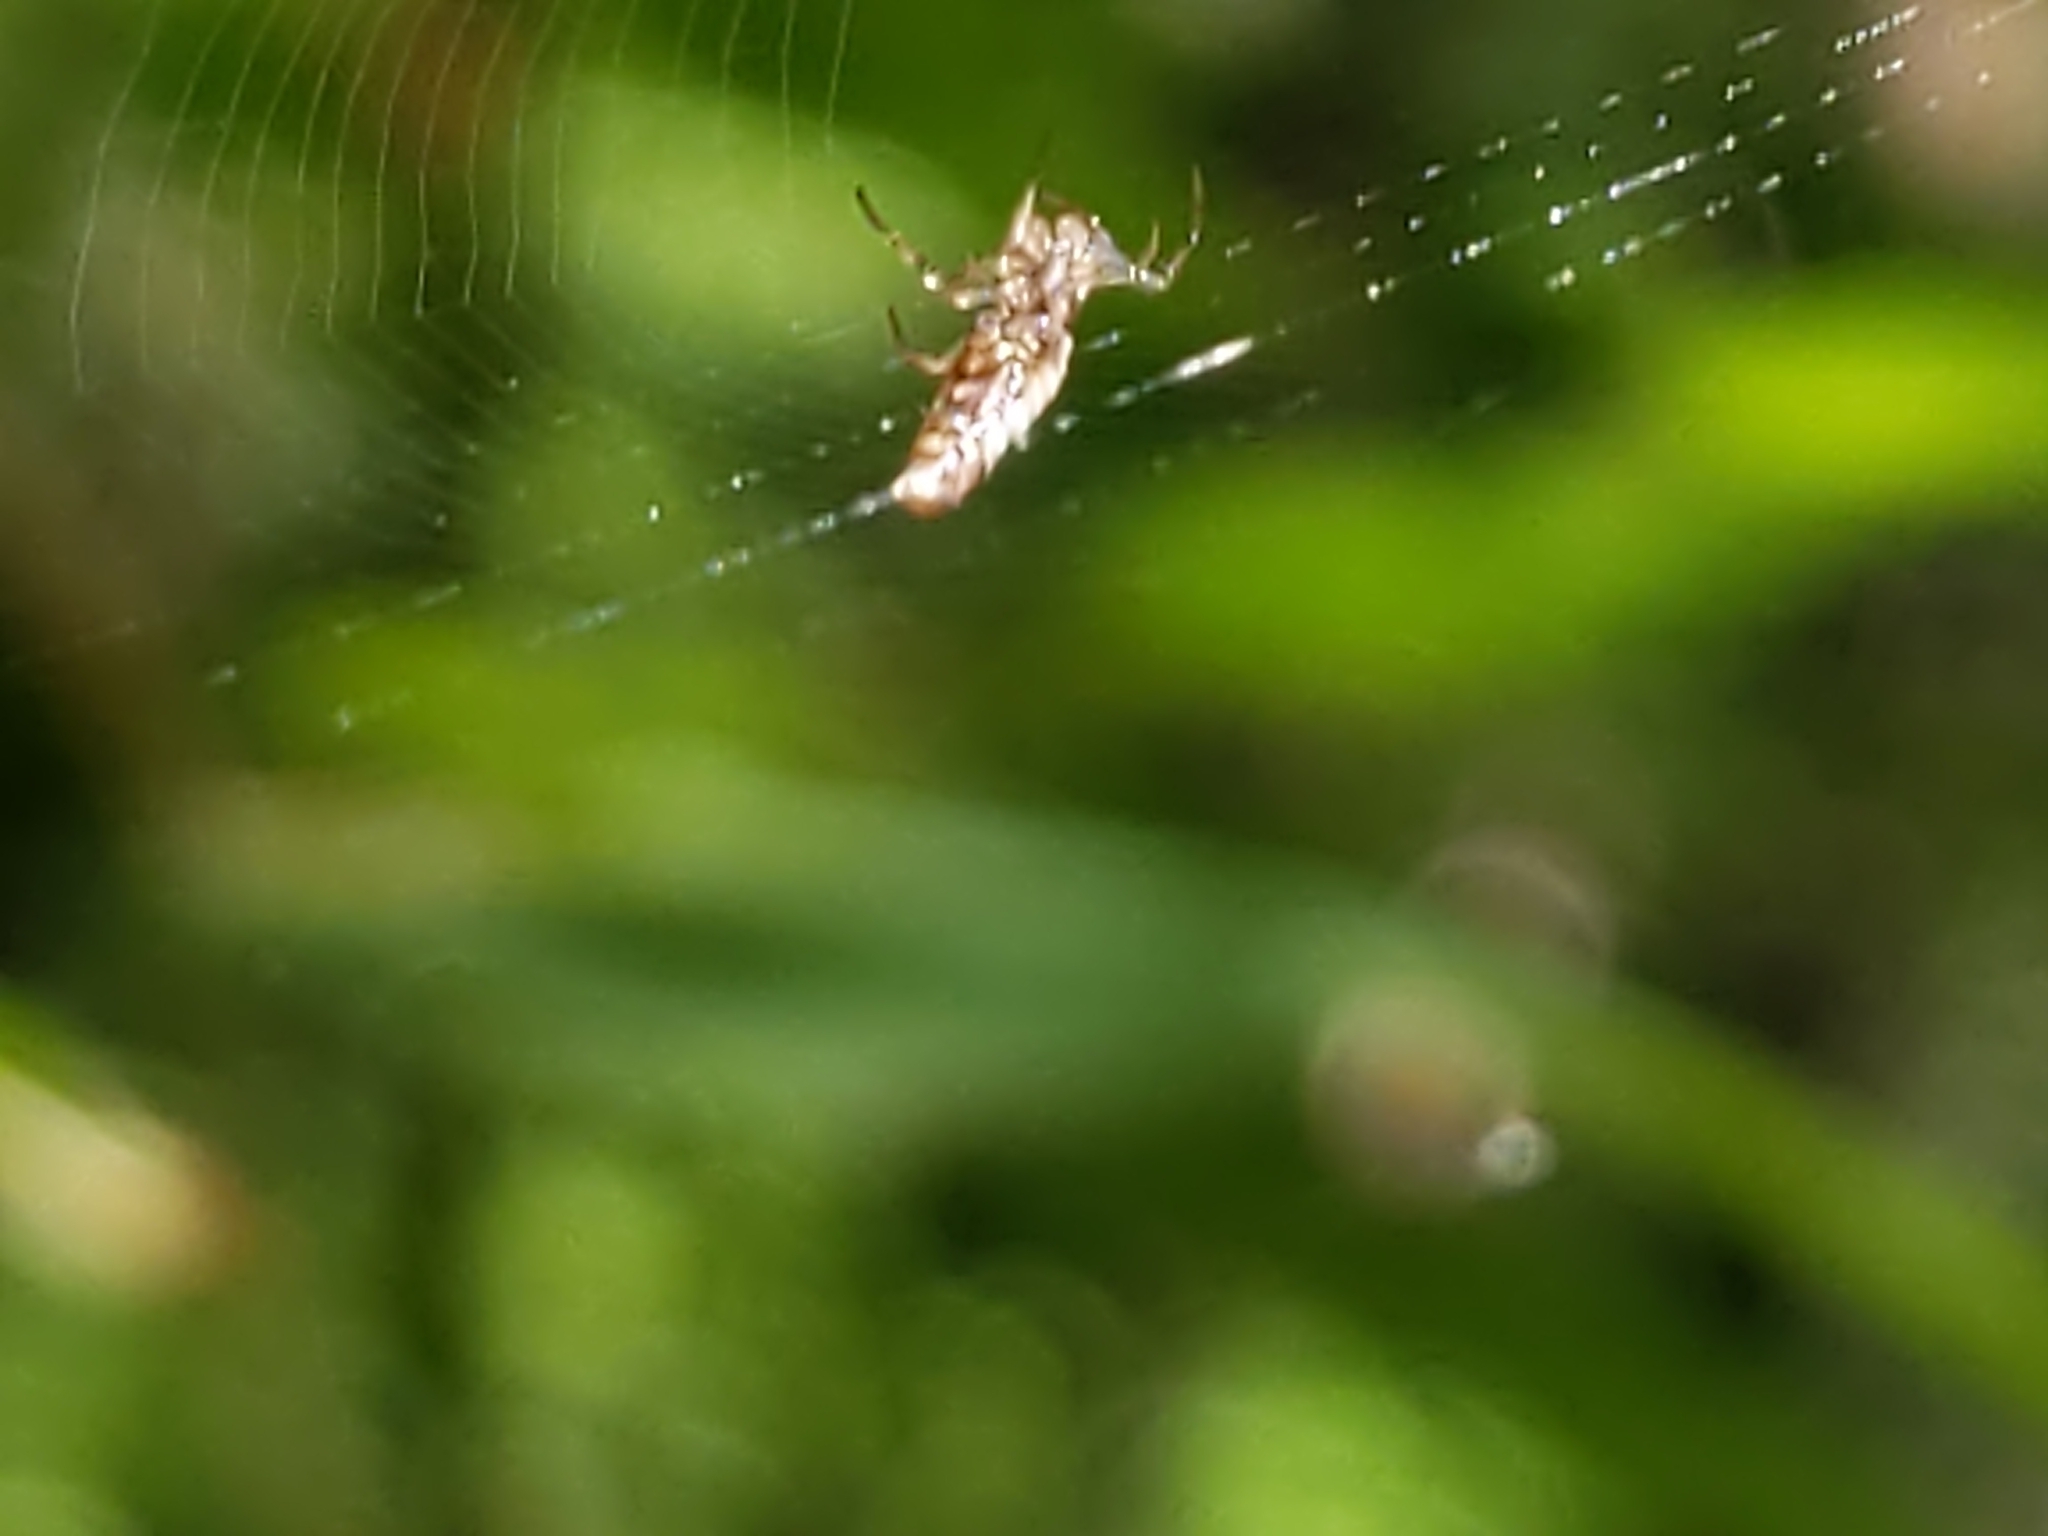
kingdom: Animalia
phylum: Arthropoda
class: Arachnida
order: Araneae
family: Araneidae
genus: Micrathena
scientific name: Micrathena gracilis
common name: Orb weavers
